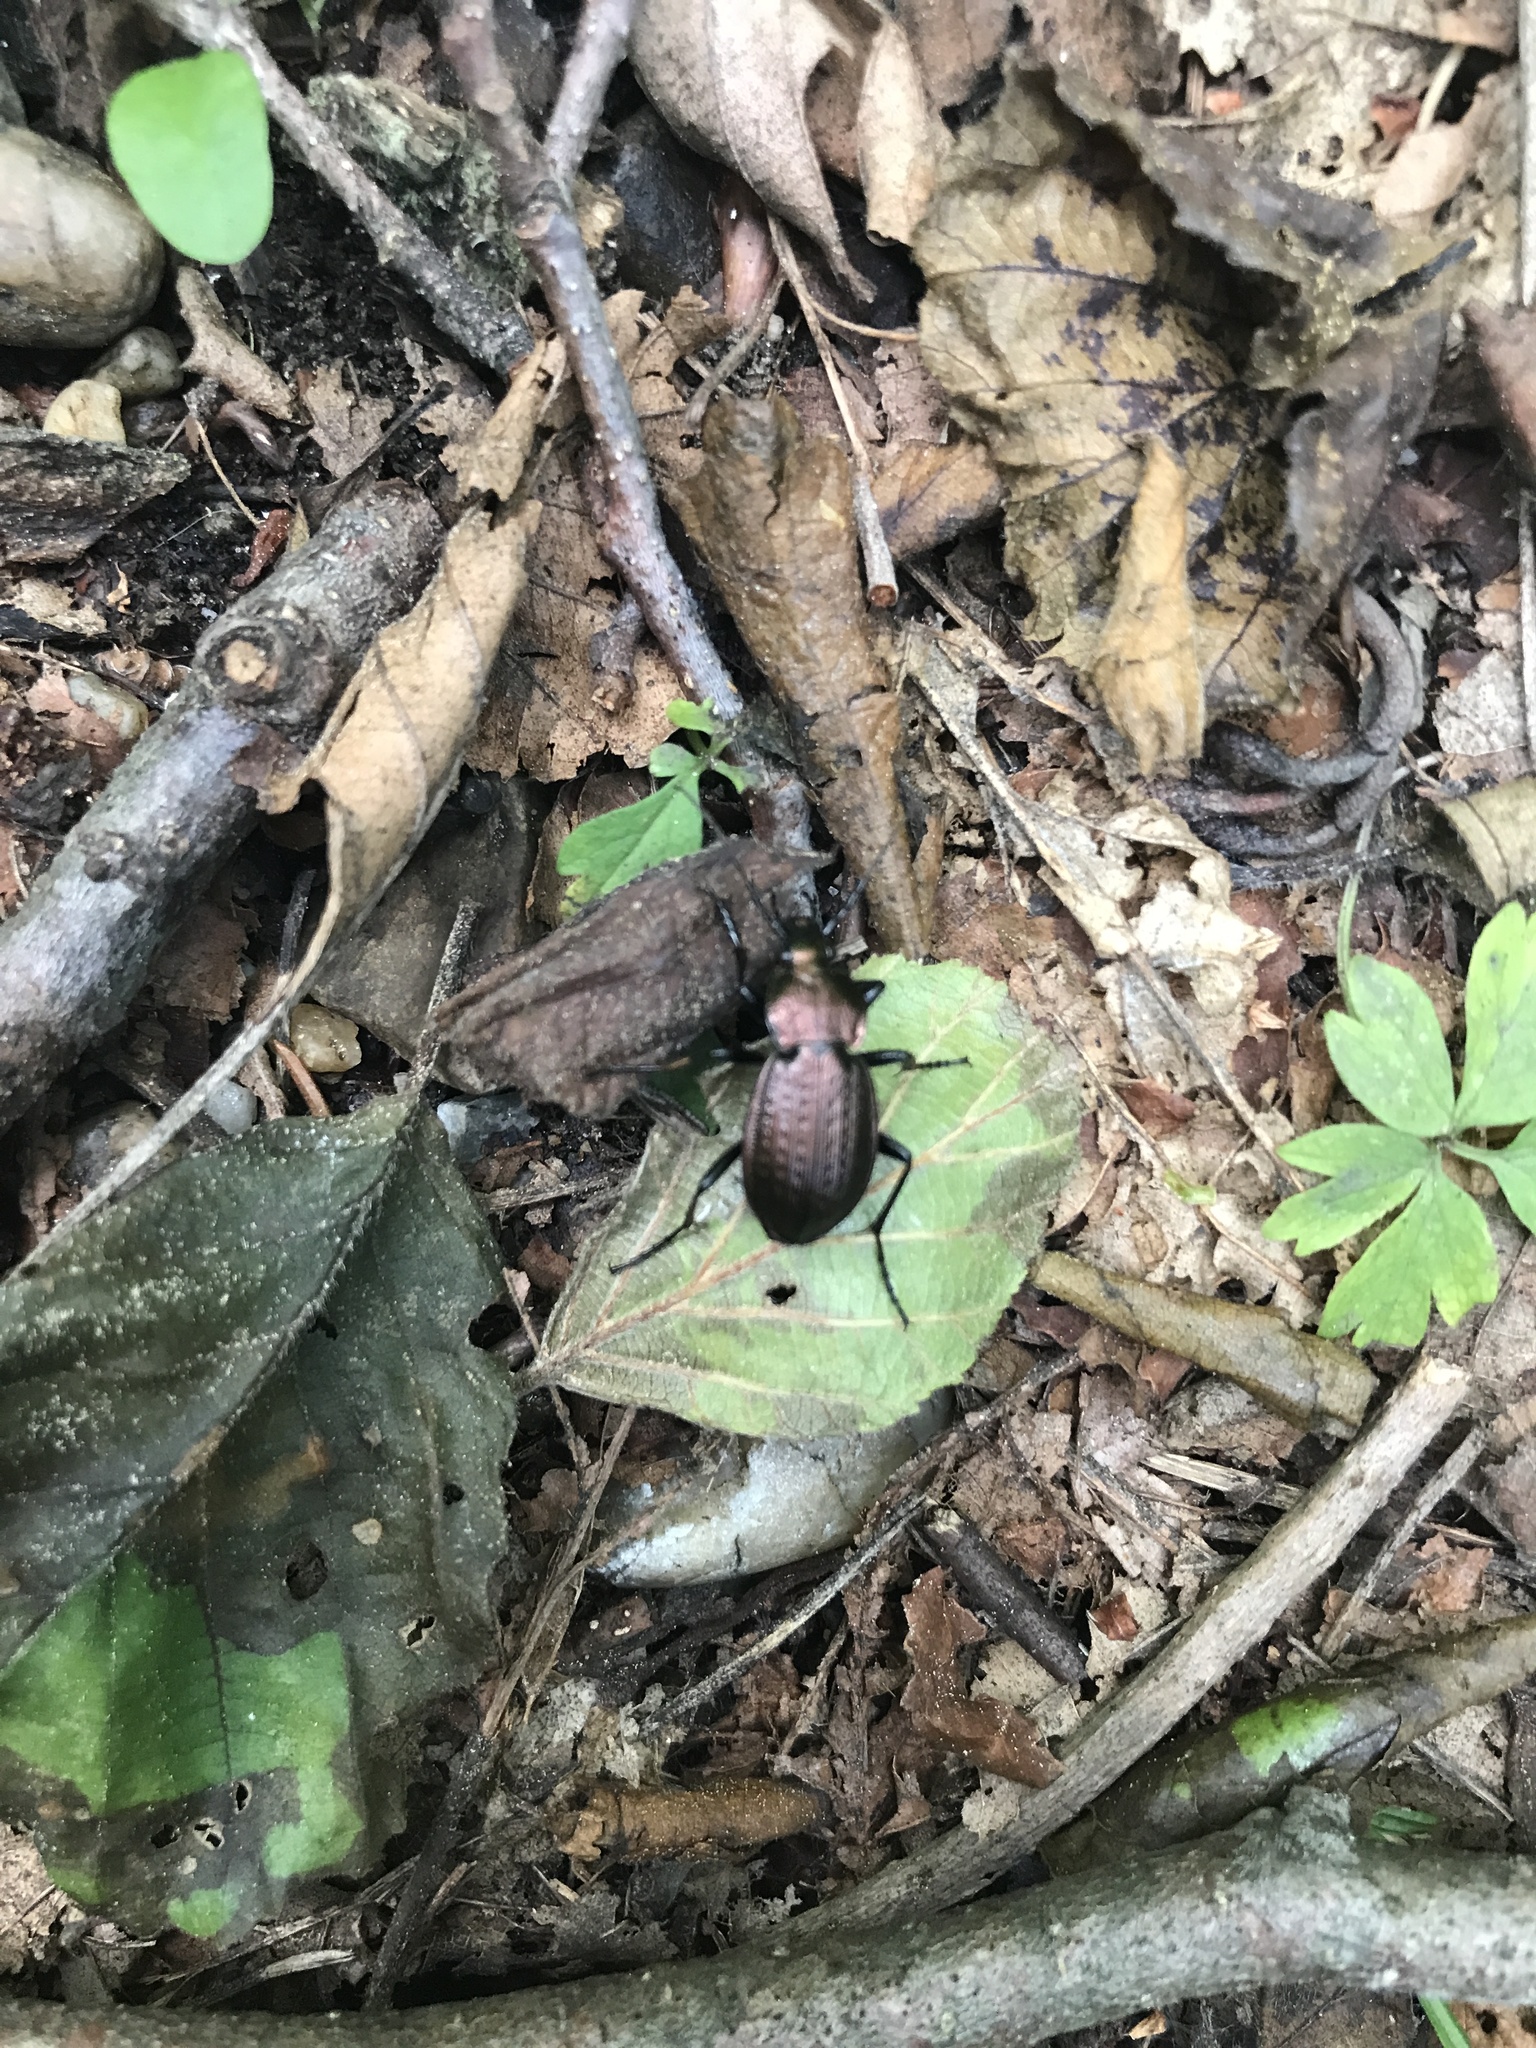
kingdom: Animalia
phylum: Arthropoda
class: Insecta
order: Coleoptera
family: Carabidae
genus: Carabus
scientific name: Carabus arvensis
